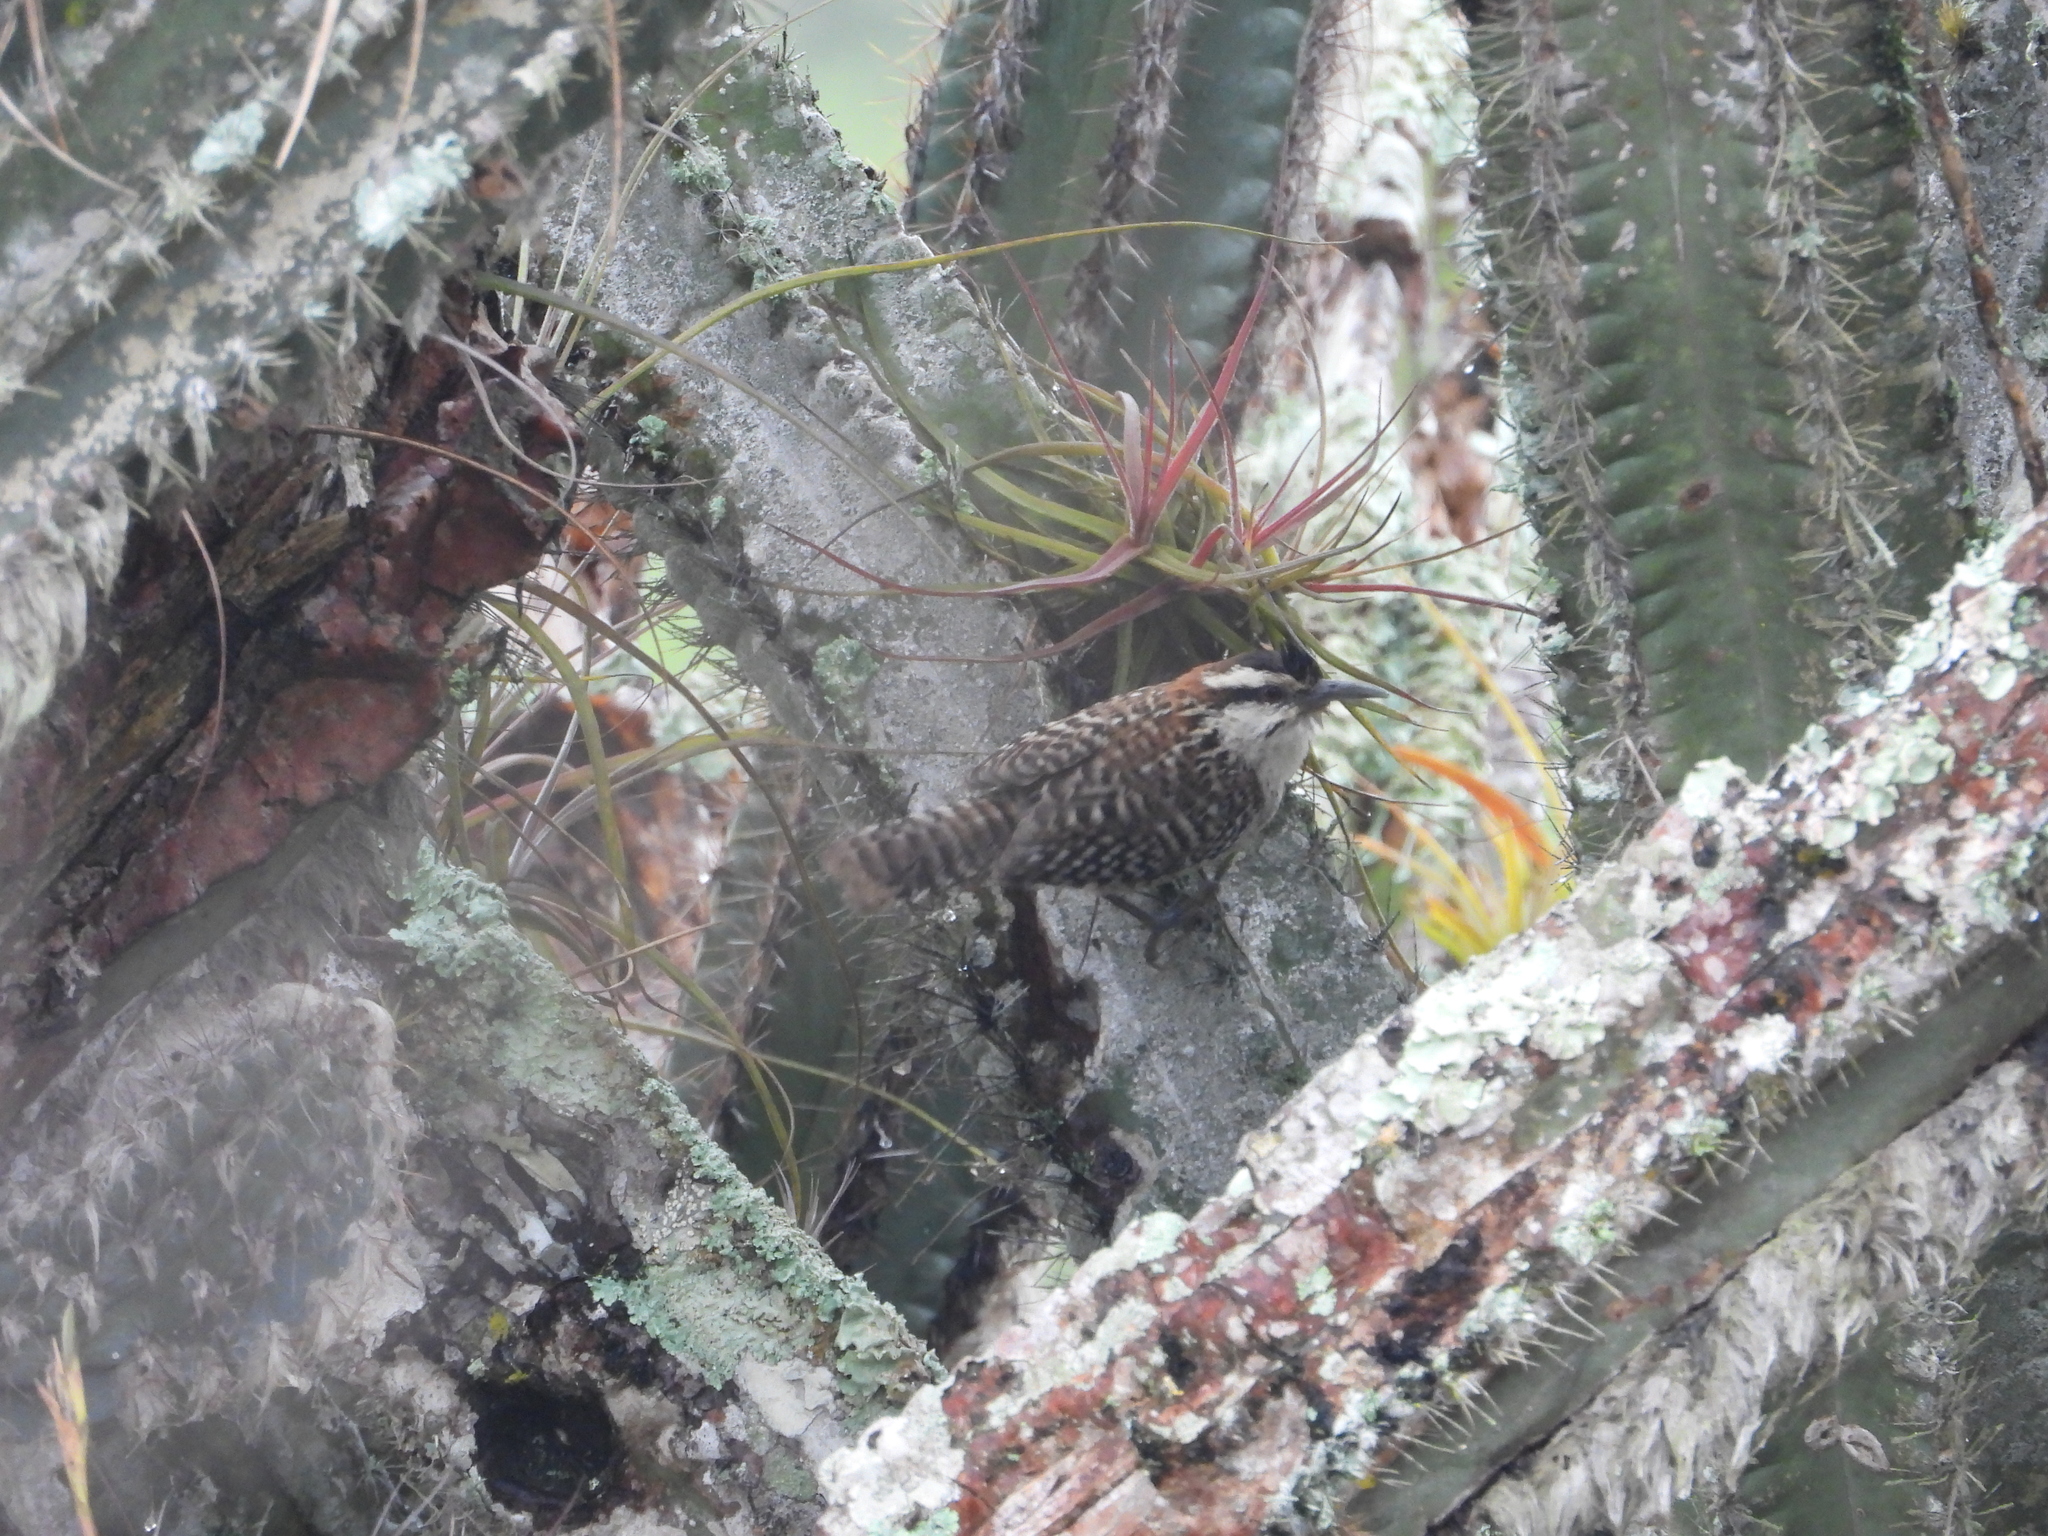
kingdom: Animalia
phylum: Chordata
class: Aves
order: Passeriformes
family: Troglodytidae
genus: Campylorhynchus
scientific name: Campylorhynchus rufinucha
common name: Rufous-naped wren
